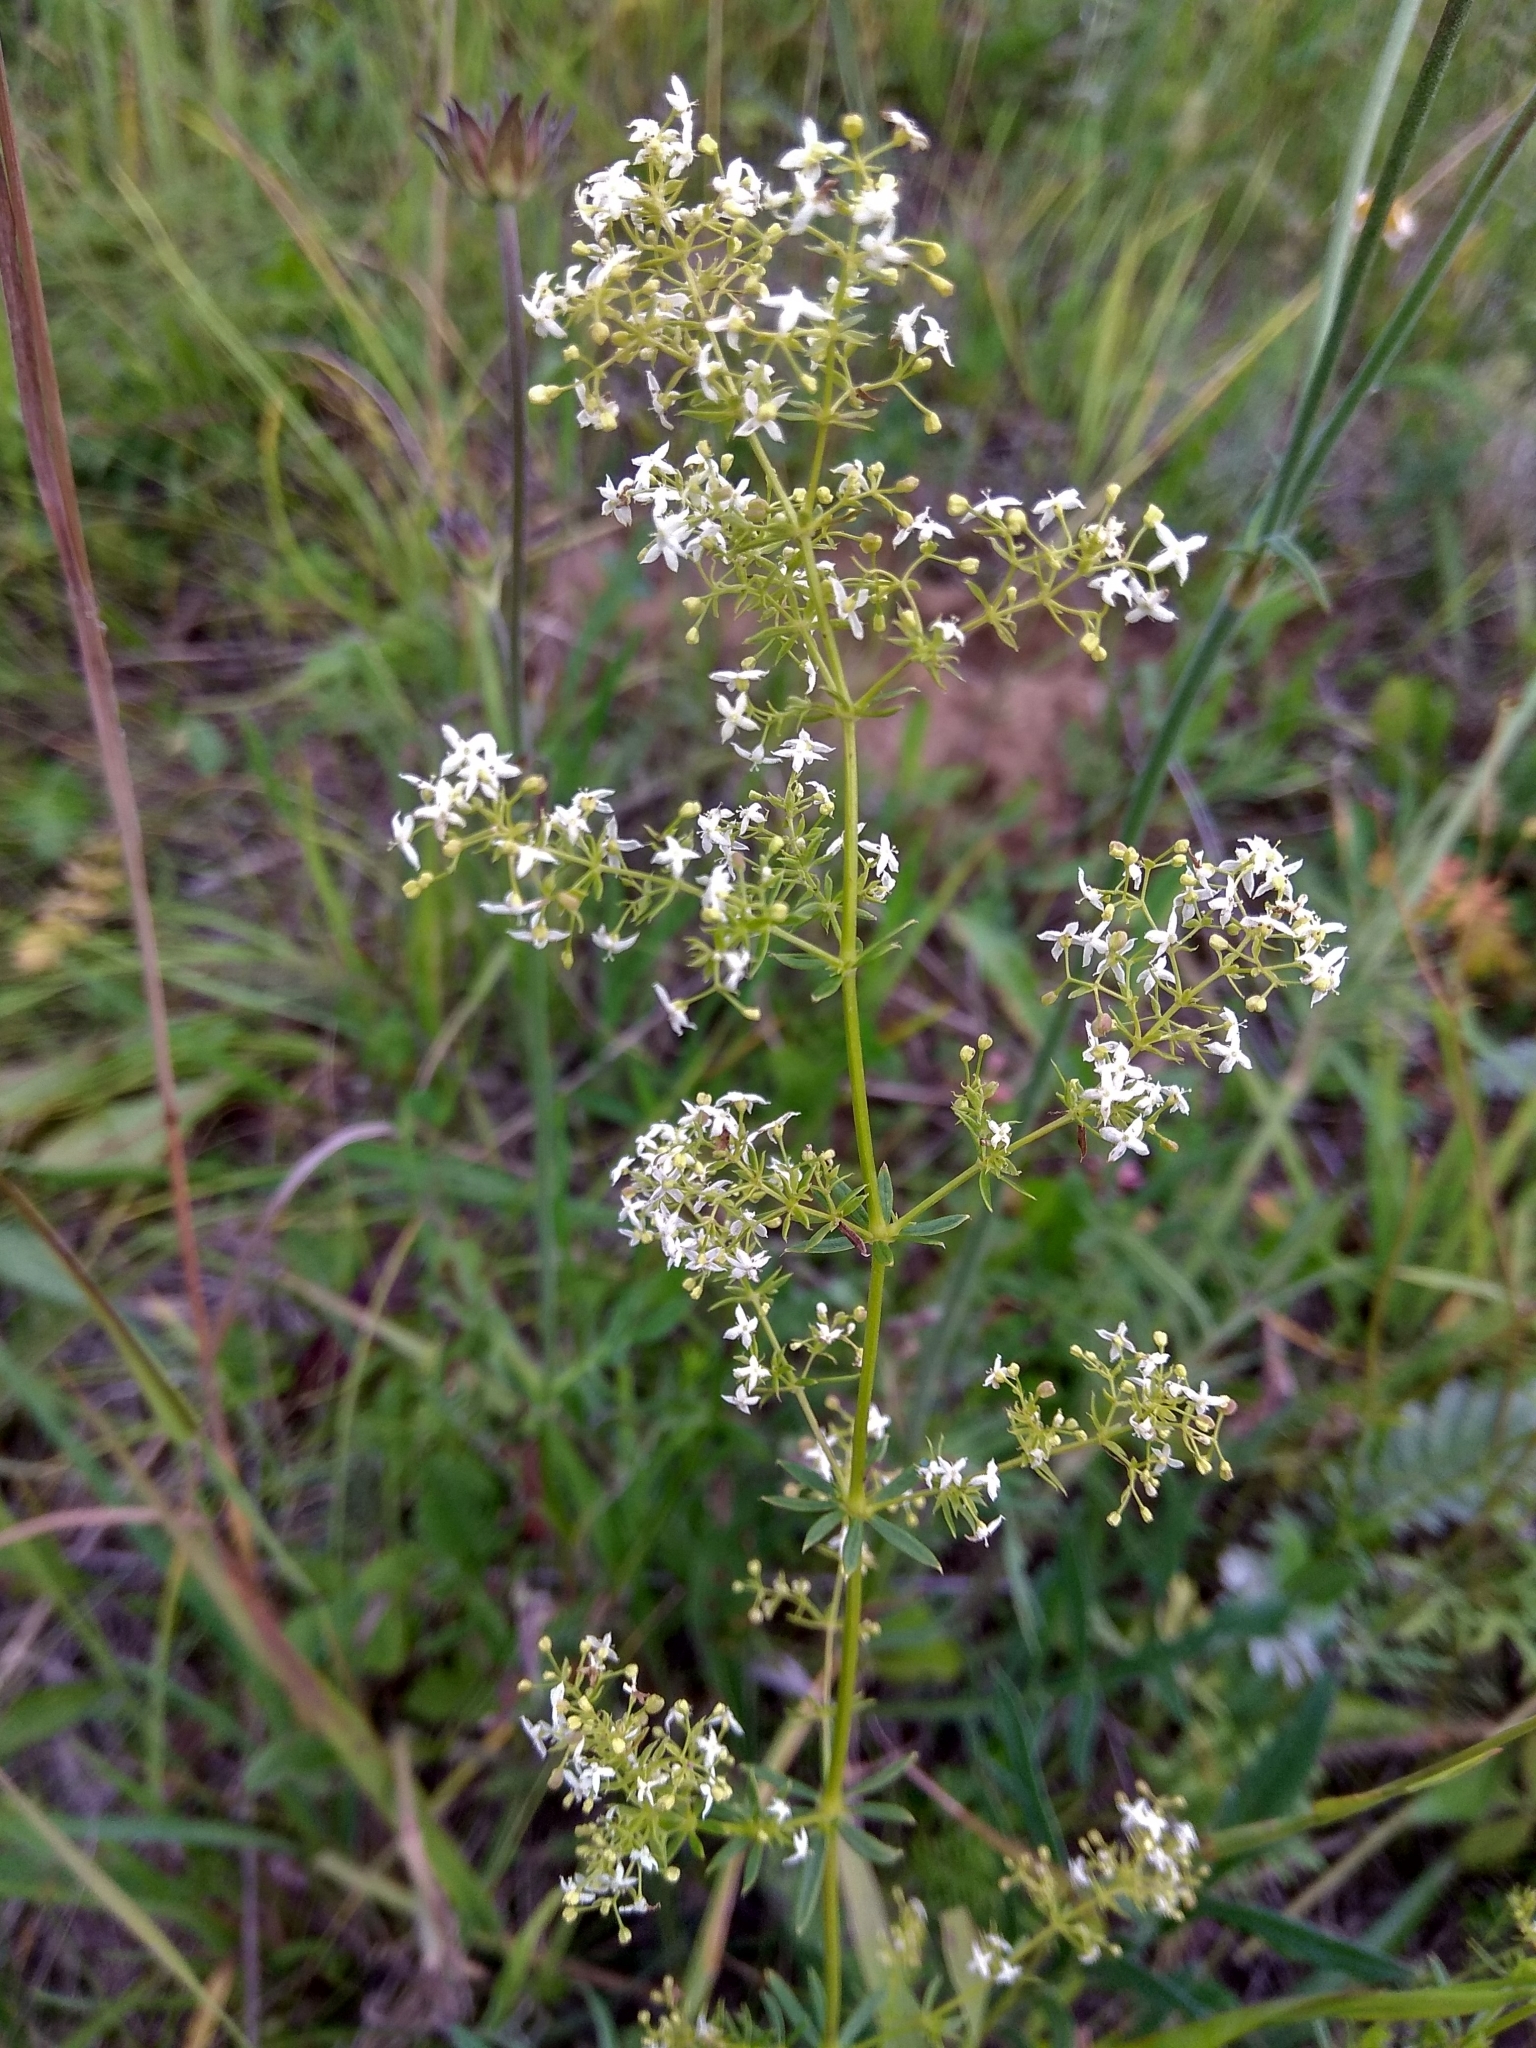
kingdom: Plantae
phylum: Tracheophyta
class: Magnoliopsida
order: Gentianales
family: Rubiaceae
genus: Galium
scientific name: Galium mollugo
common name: Hedge bedstraw
